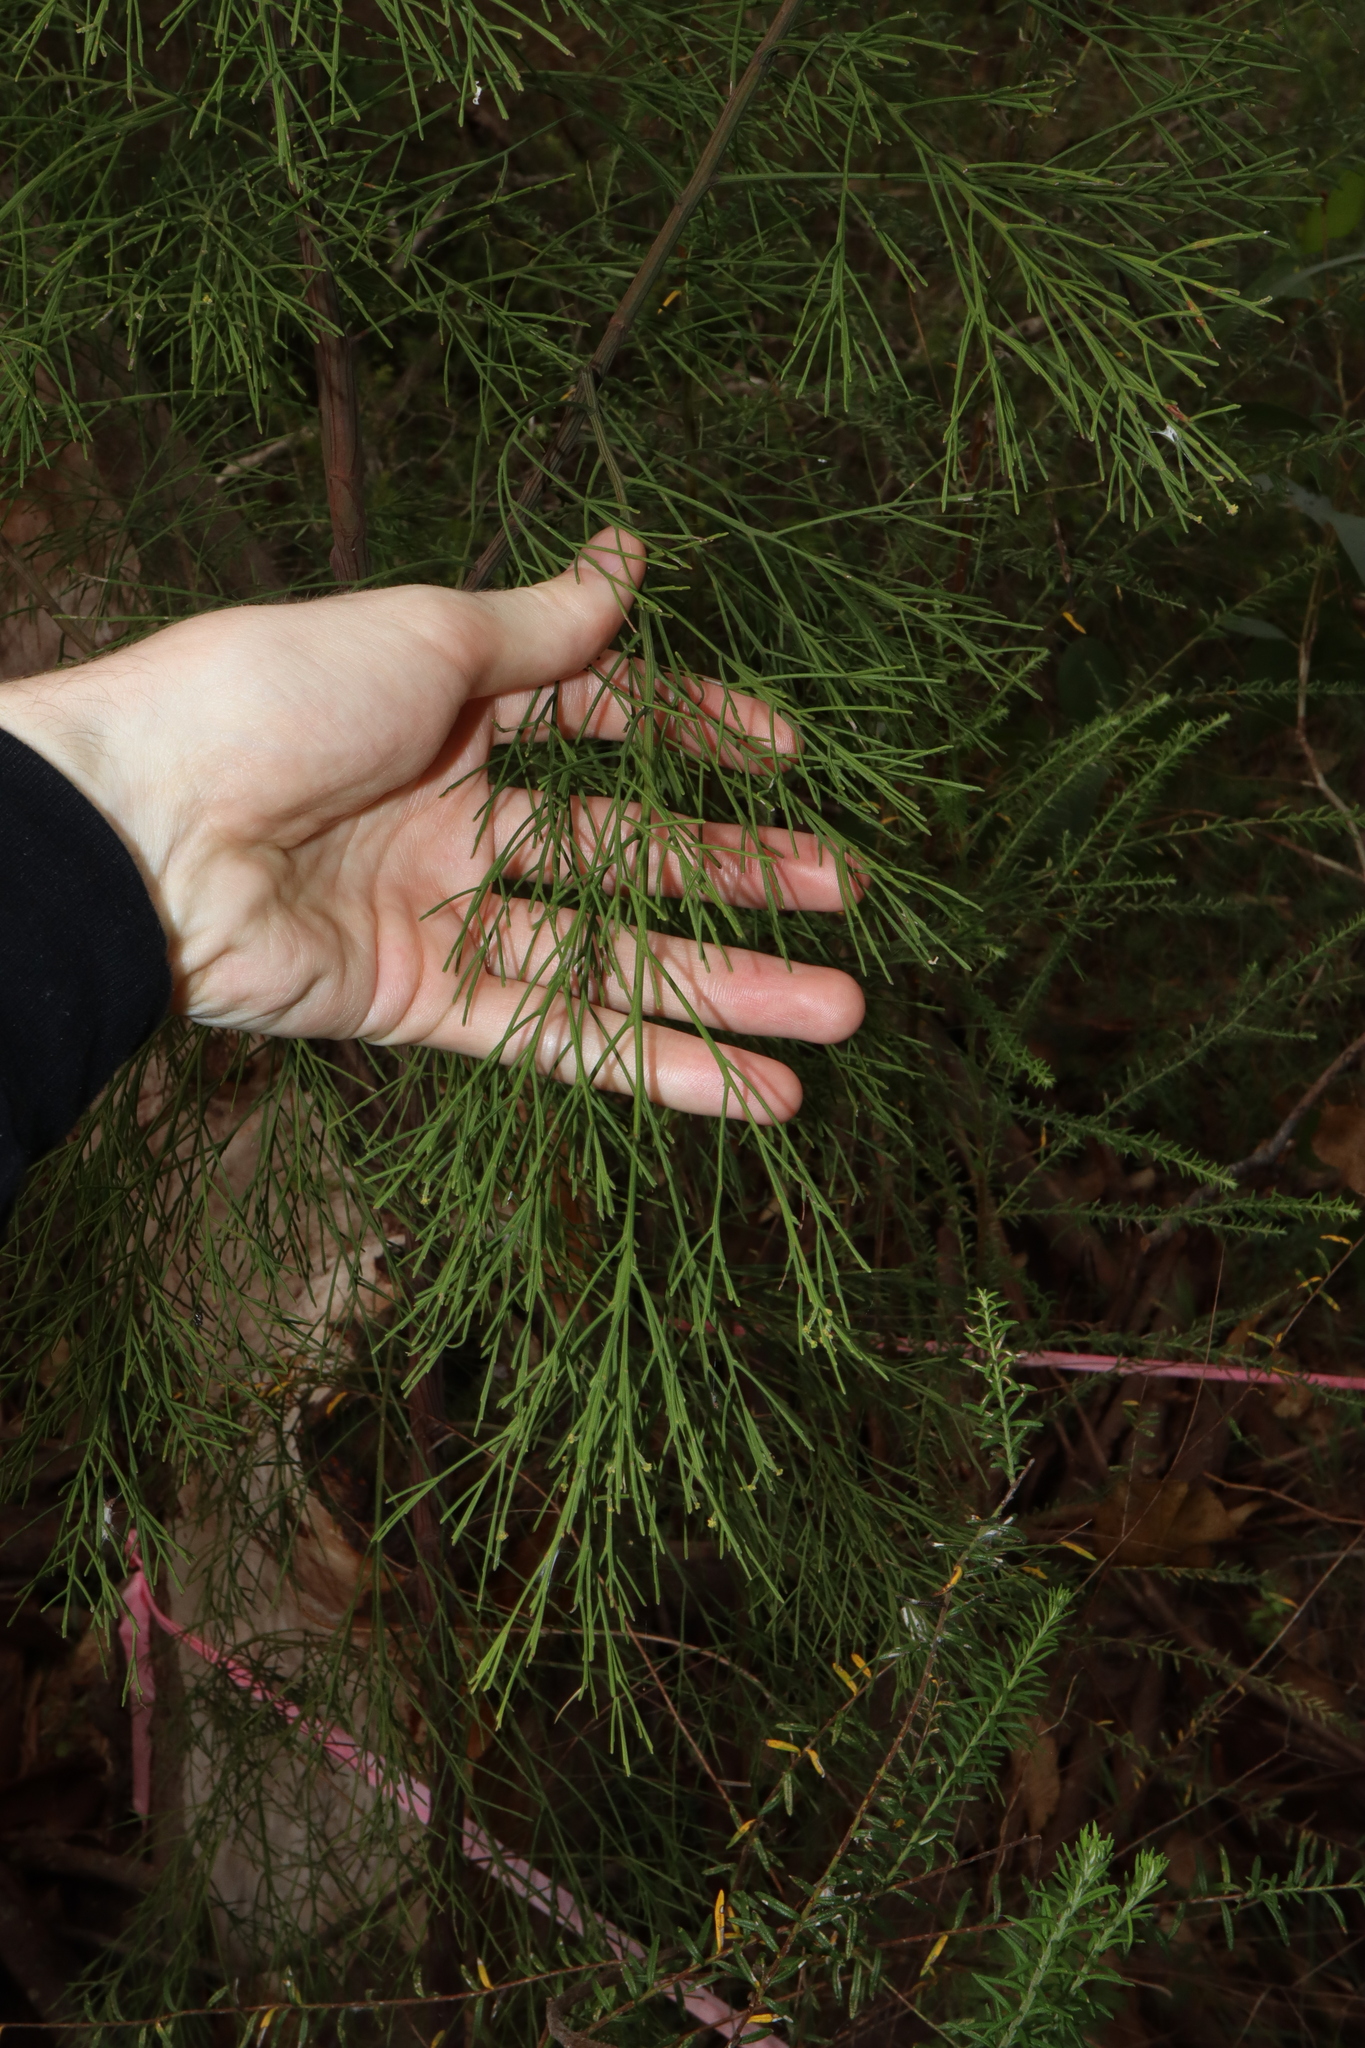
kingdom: Plantae
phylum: Tracheophyta
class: Magnoliopsida
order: Santalales
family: Santalaceae
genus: Exocarpos
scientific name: Exocarpos cupressiformis
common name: Cherry ballart
